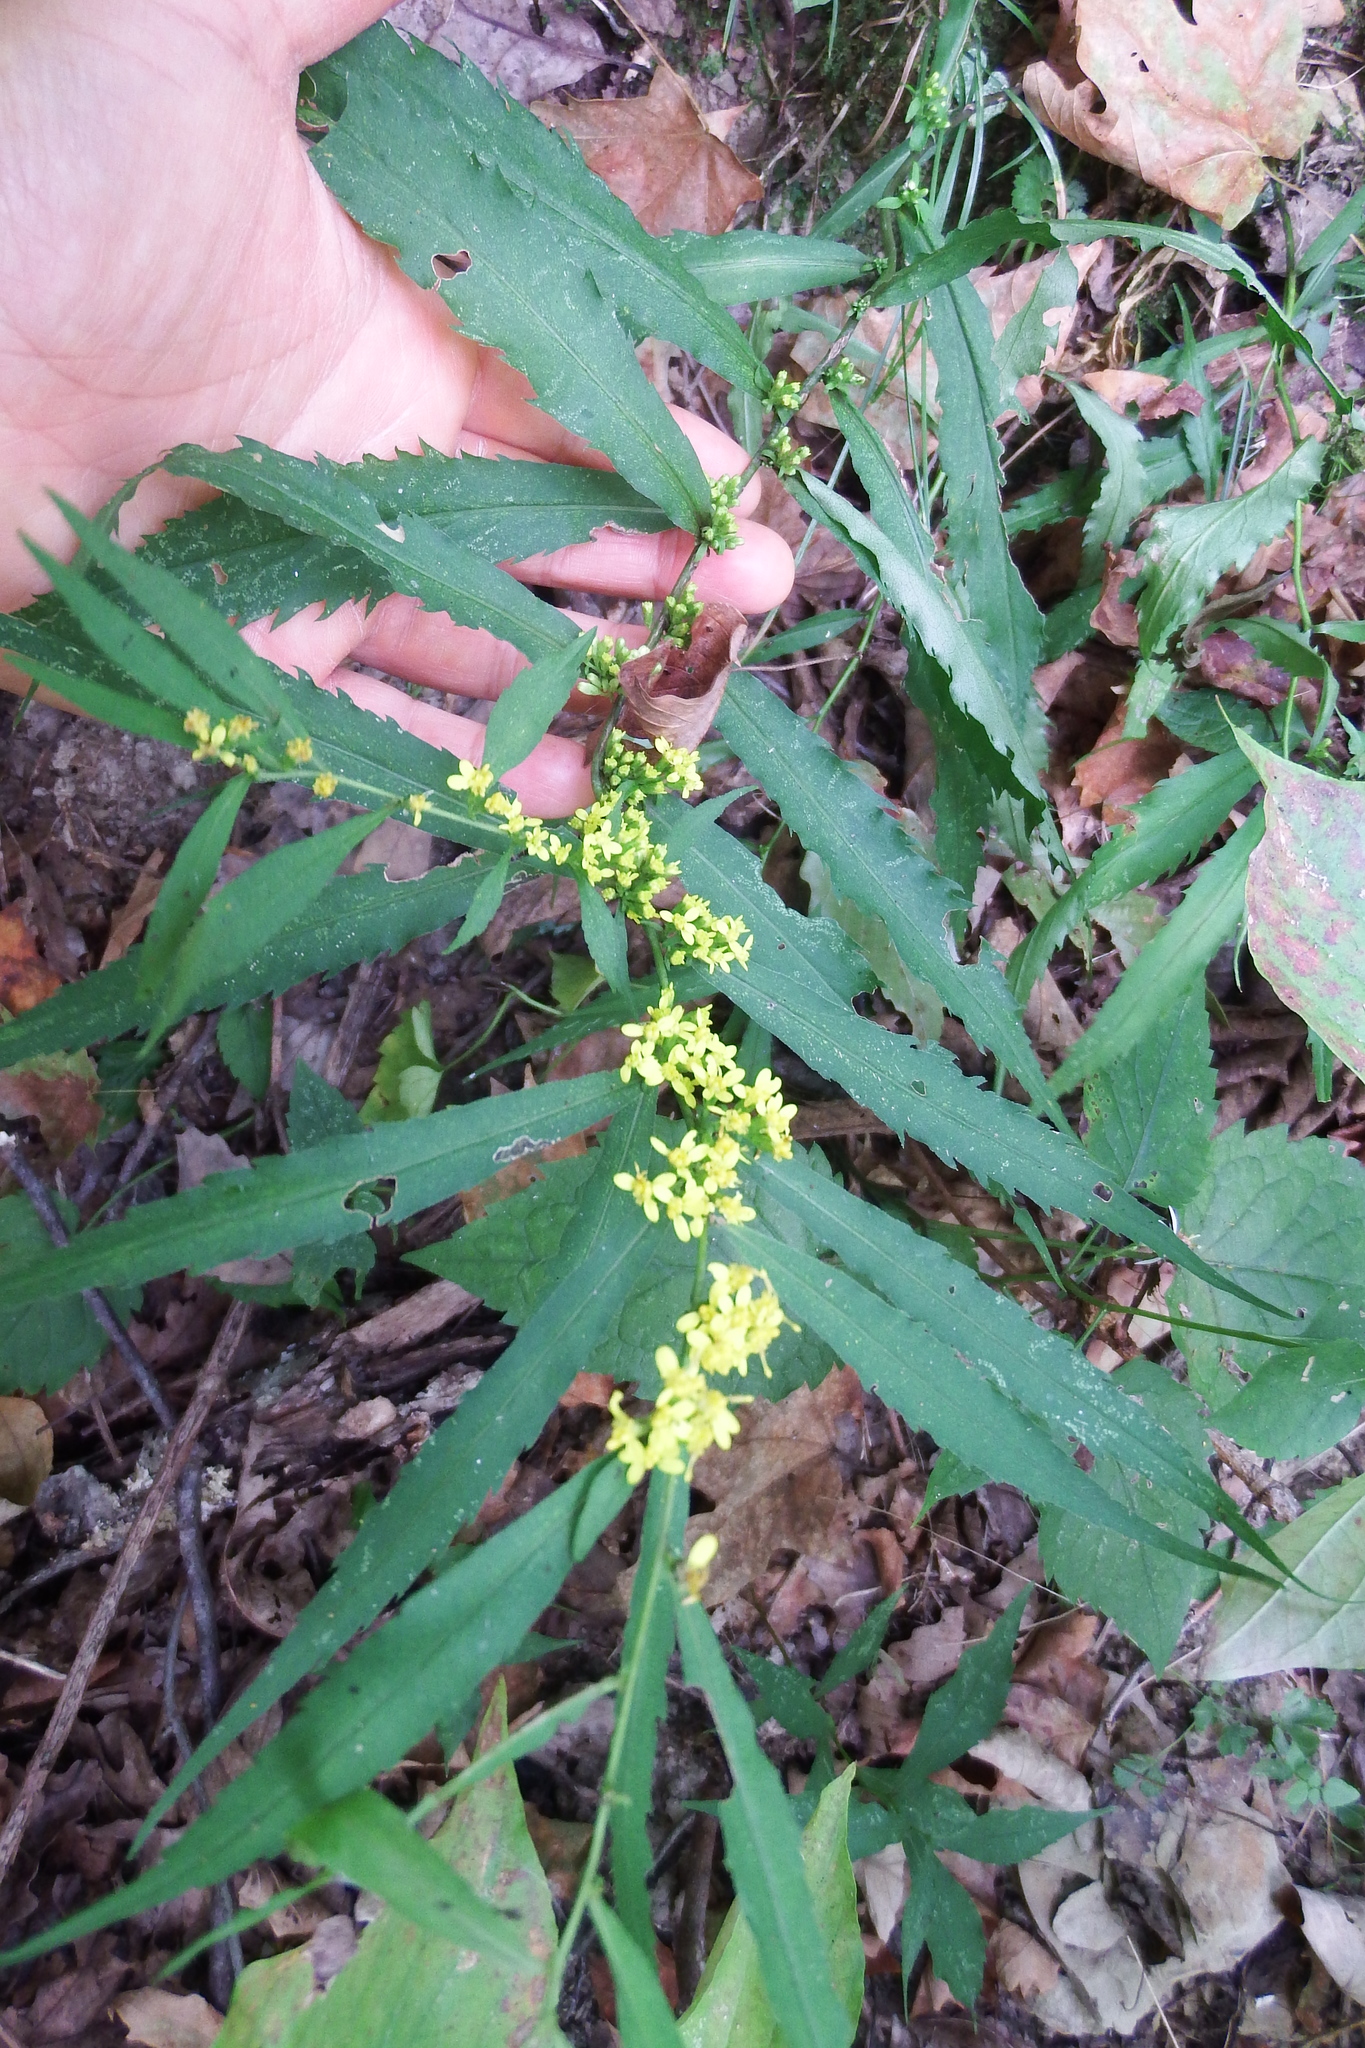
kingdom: Plantae
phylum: Tracheophyta
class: Magnoliopsida
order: Asterales
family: Asteraceae
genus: Solidago
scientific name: Solidago caesia
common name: Woodland goldenrod
